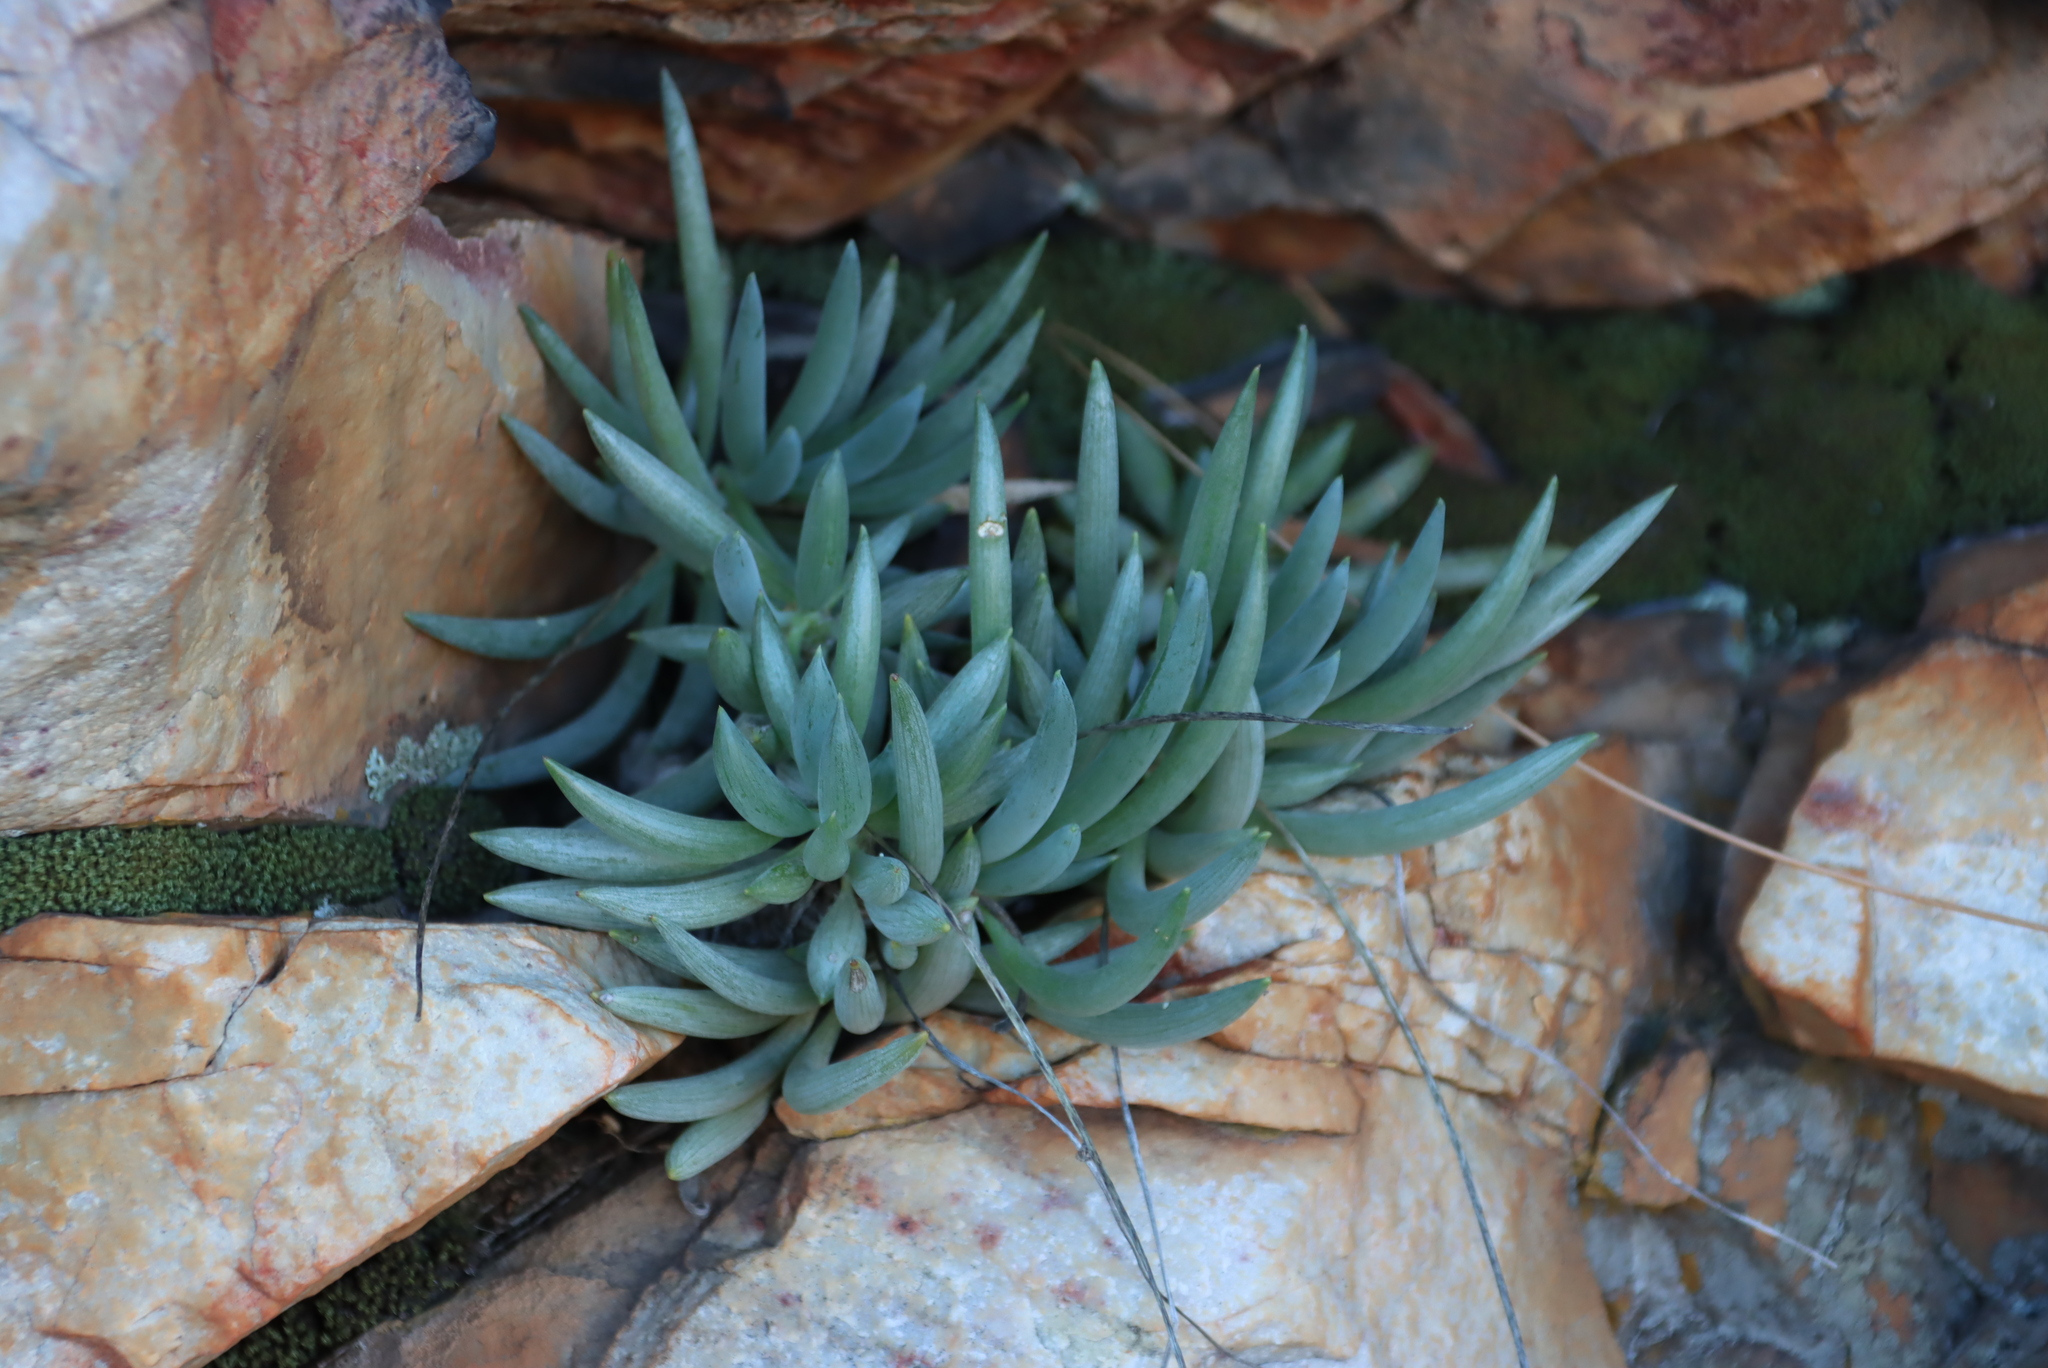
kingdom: Plantae
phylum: Tracheophyta
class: Magnoliopsida
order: Asterales
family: Asteraceae
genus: Curio
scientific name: Curio talinoides
